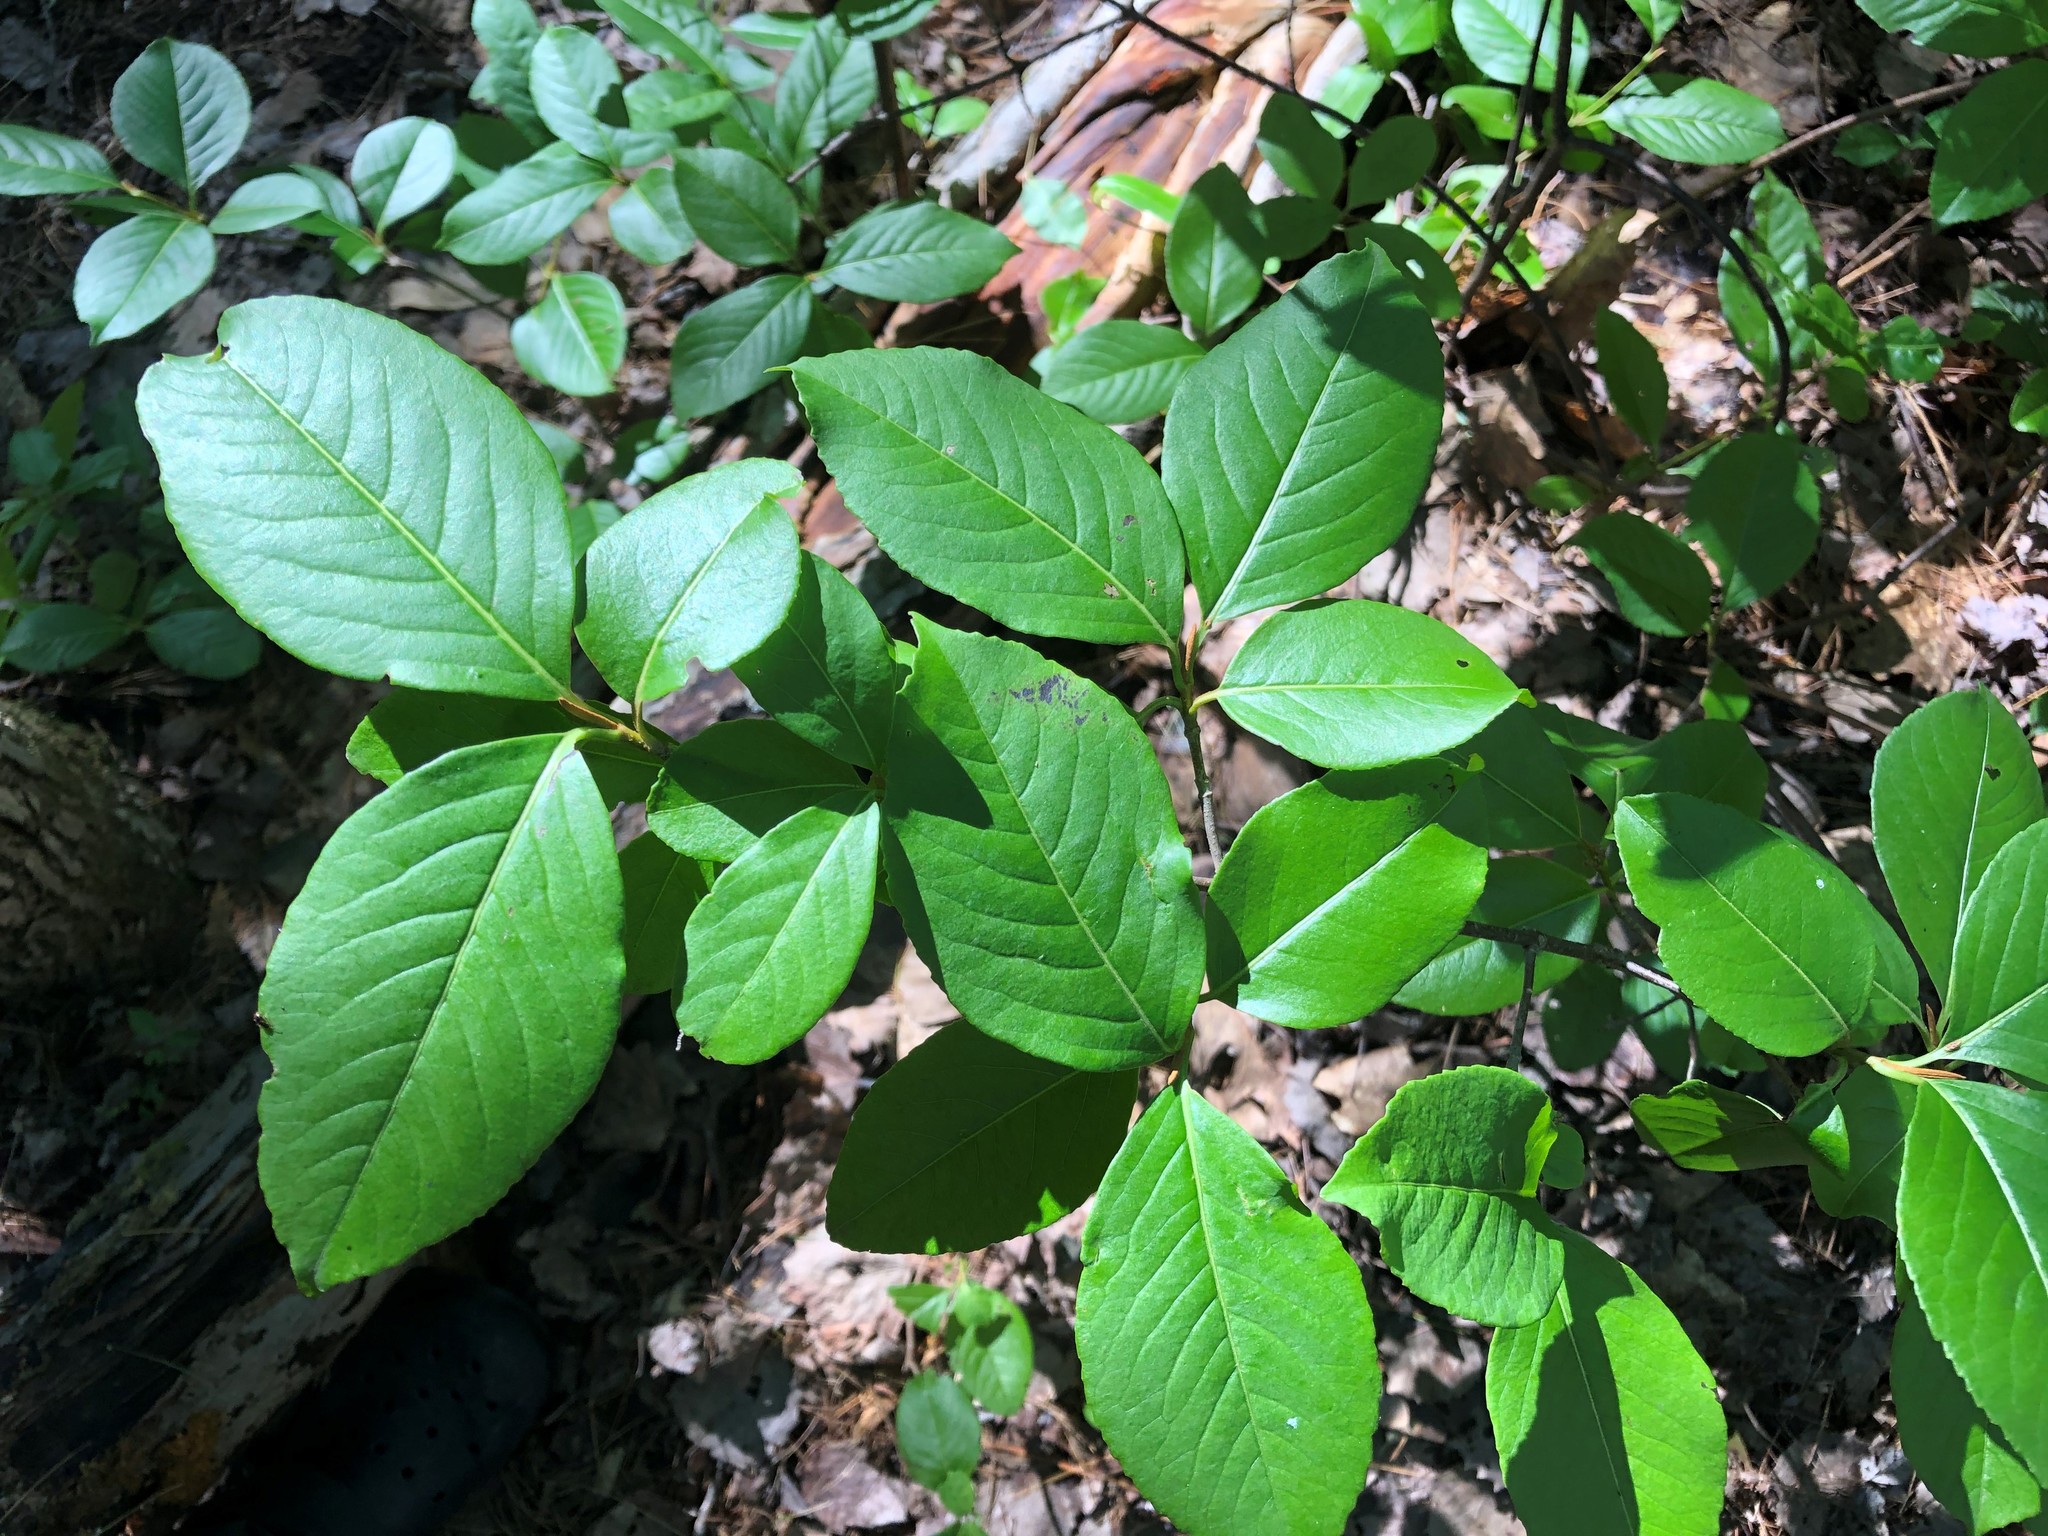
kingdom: Plantae
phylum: Tracheophyta
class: Magnoliopsida
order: Dipsacales
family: Viburnaceae
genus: Viburnum
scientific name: Viburnum cassinoides
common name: Swamp haw
